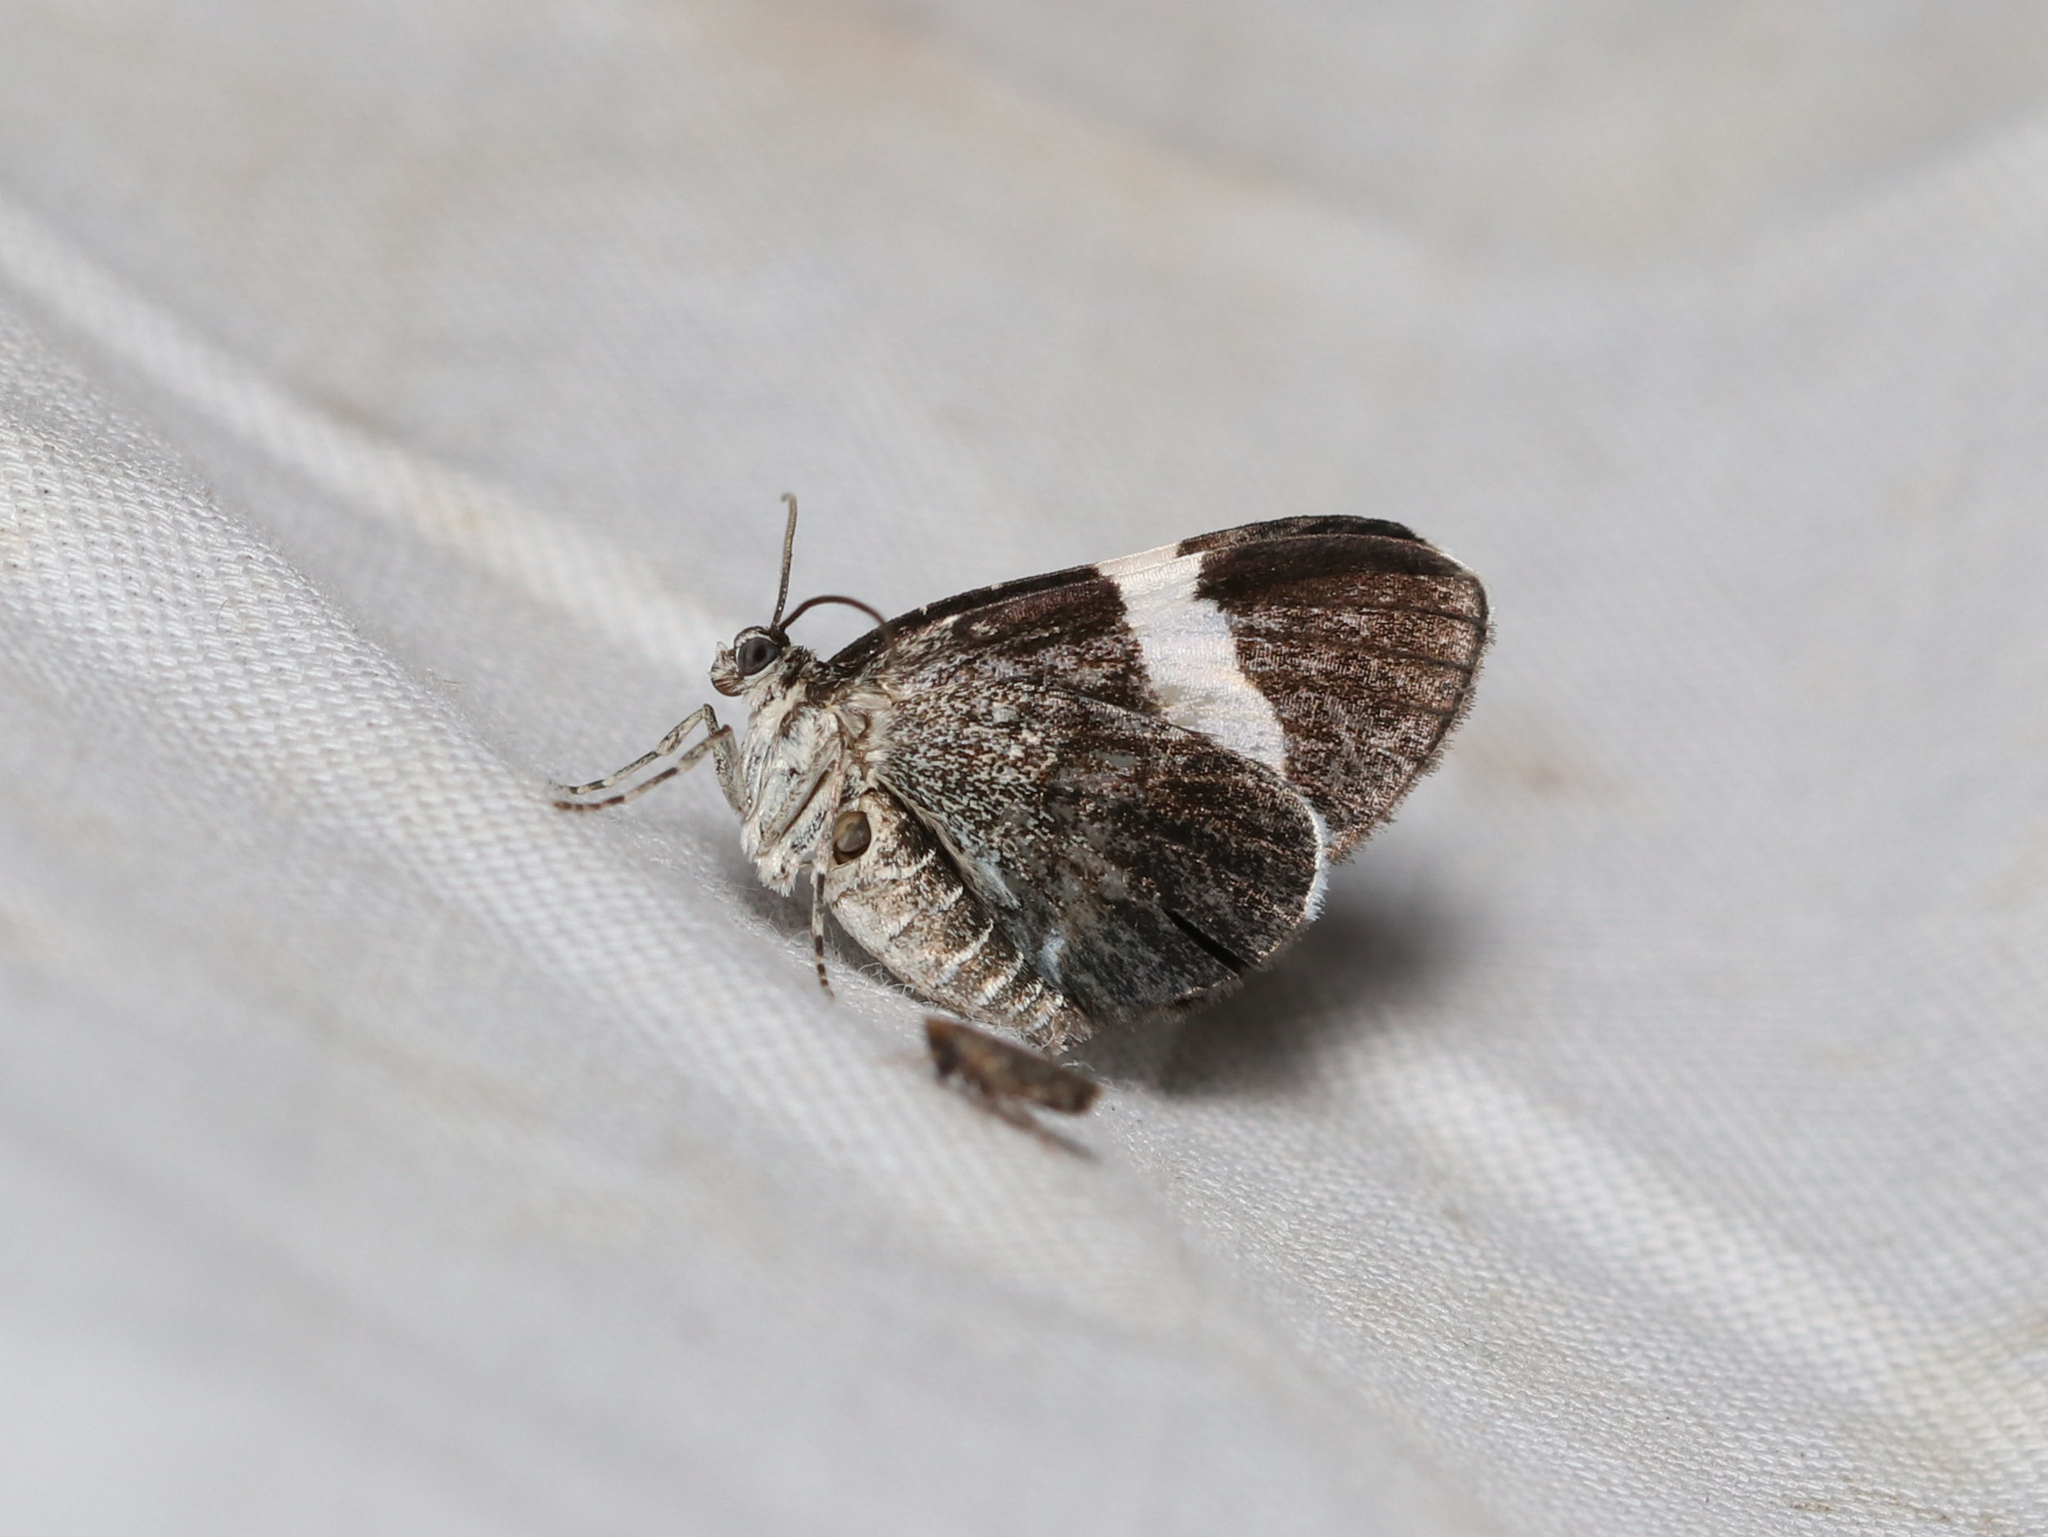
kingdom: Animalia
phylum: Arthropoda
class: Insecta
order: Lepidoptera
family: Geometridae
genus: Trichodezia
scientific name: Trichodezia albovittata
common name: White striped black
